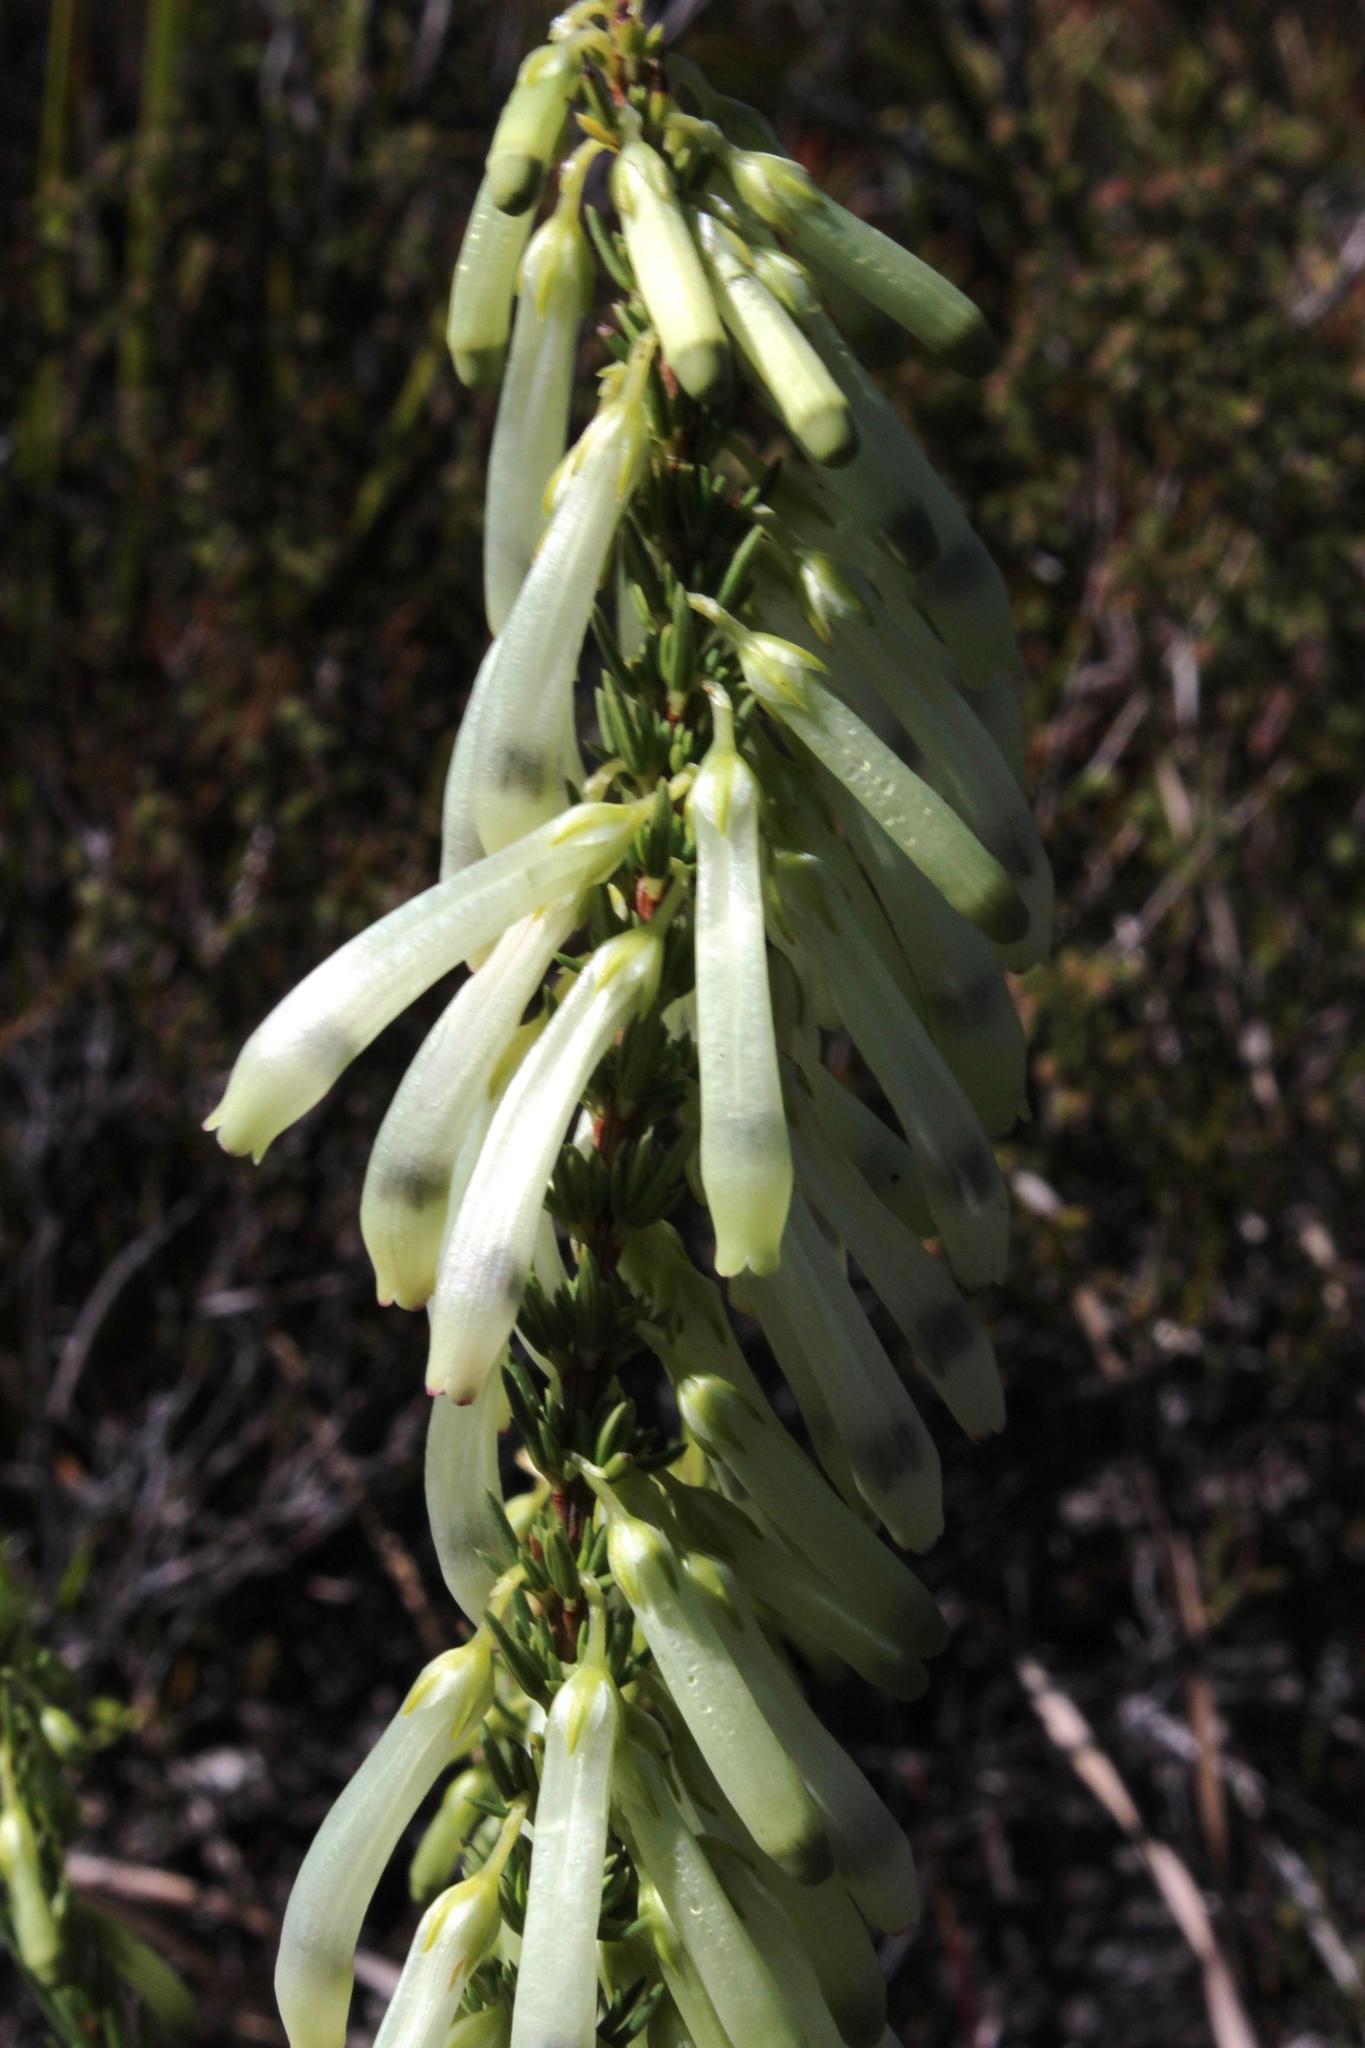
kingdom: Plantae
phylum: Tracheophyta
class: Magnoliopsida
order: Ericales
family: Ericaceae
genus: Erica
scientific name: Erica mammosa
